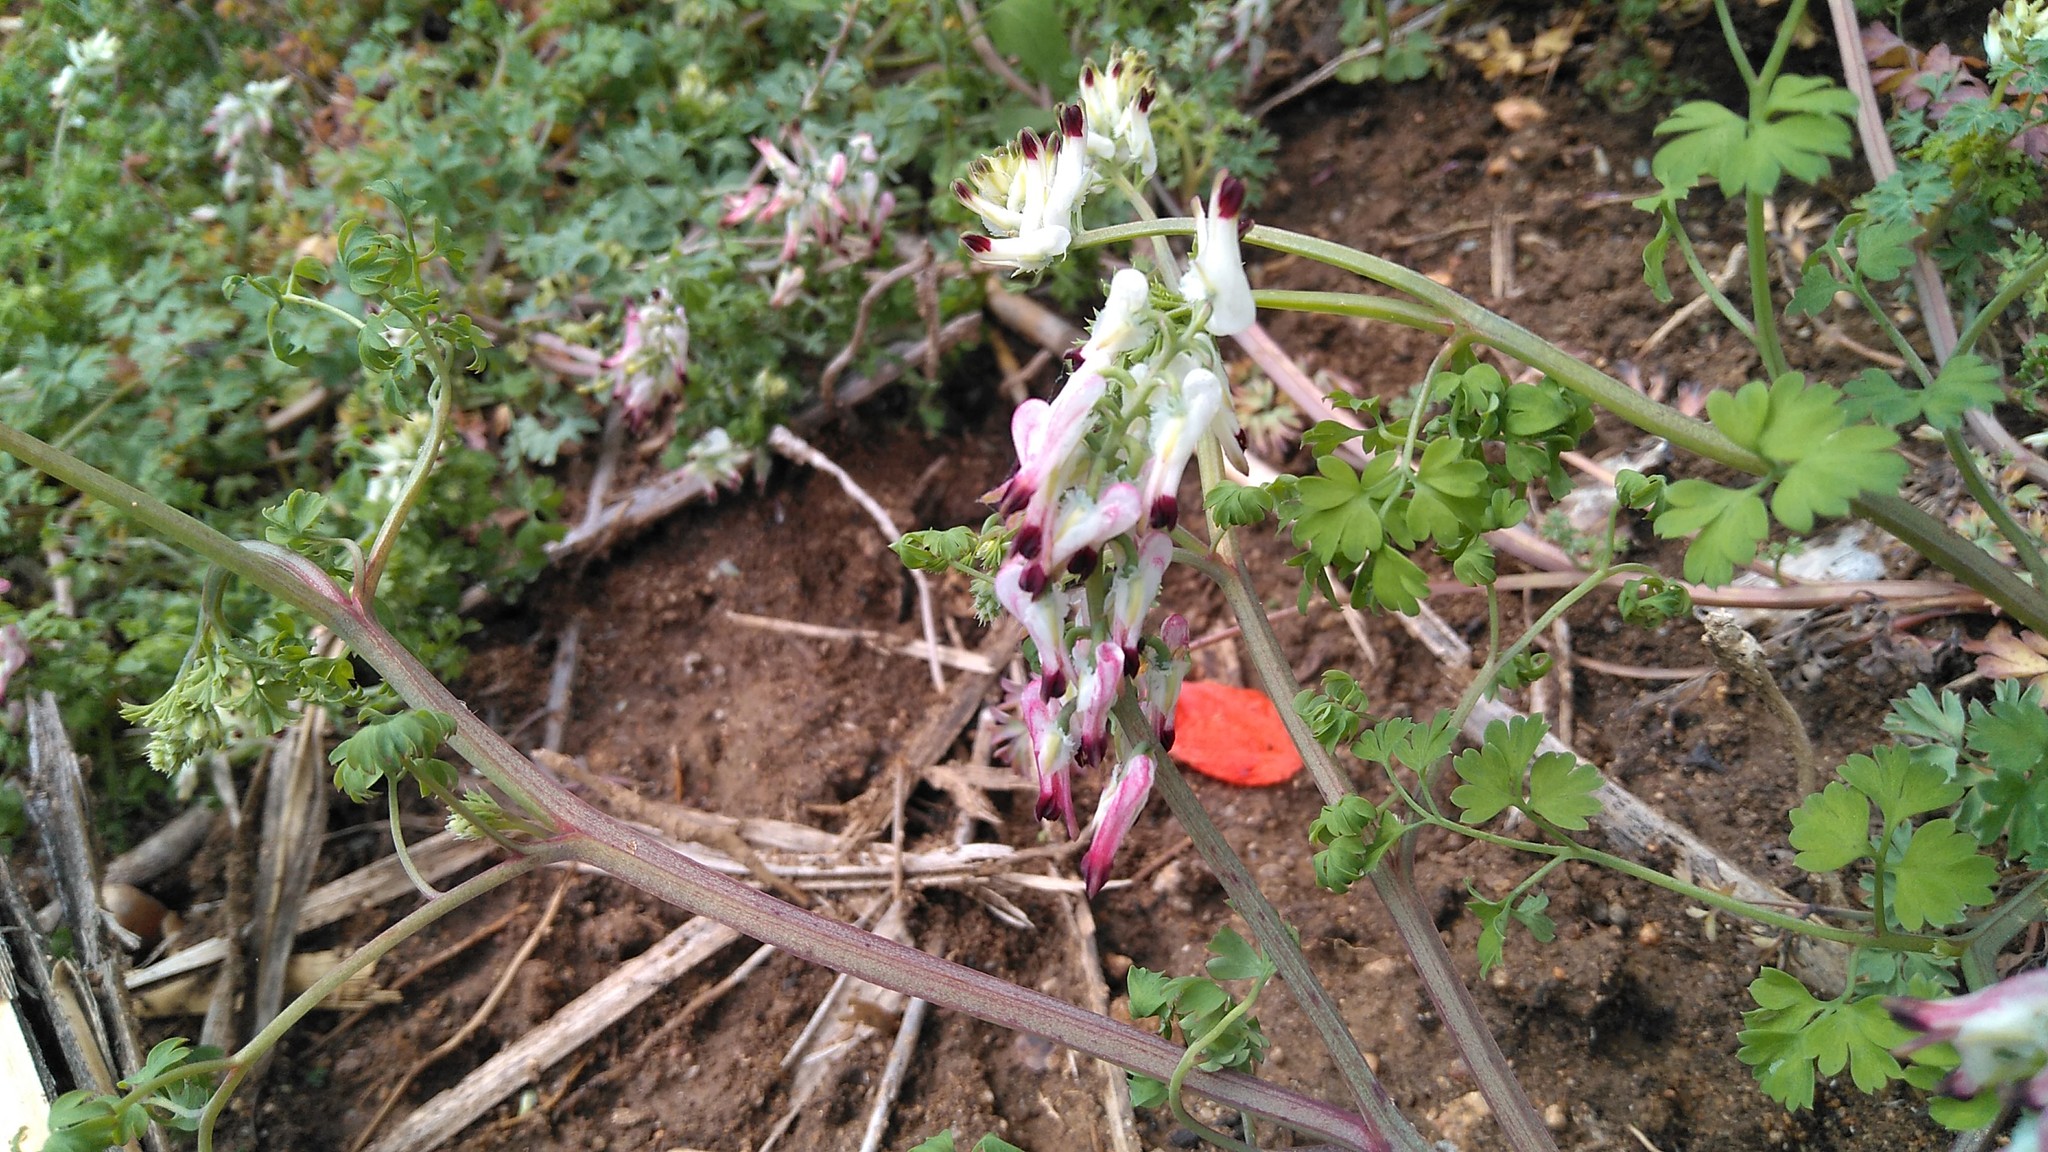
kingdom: Plantae
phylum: Tracheophyta
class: Magnoliopsida
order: Ranunculales
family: Papaveraceae
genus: Fumaria
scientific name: Fumaria capreolata
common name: White ramping-fumitory
